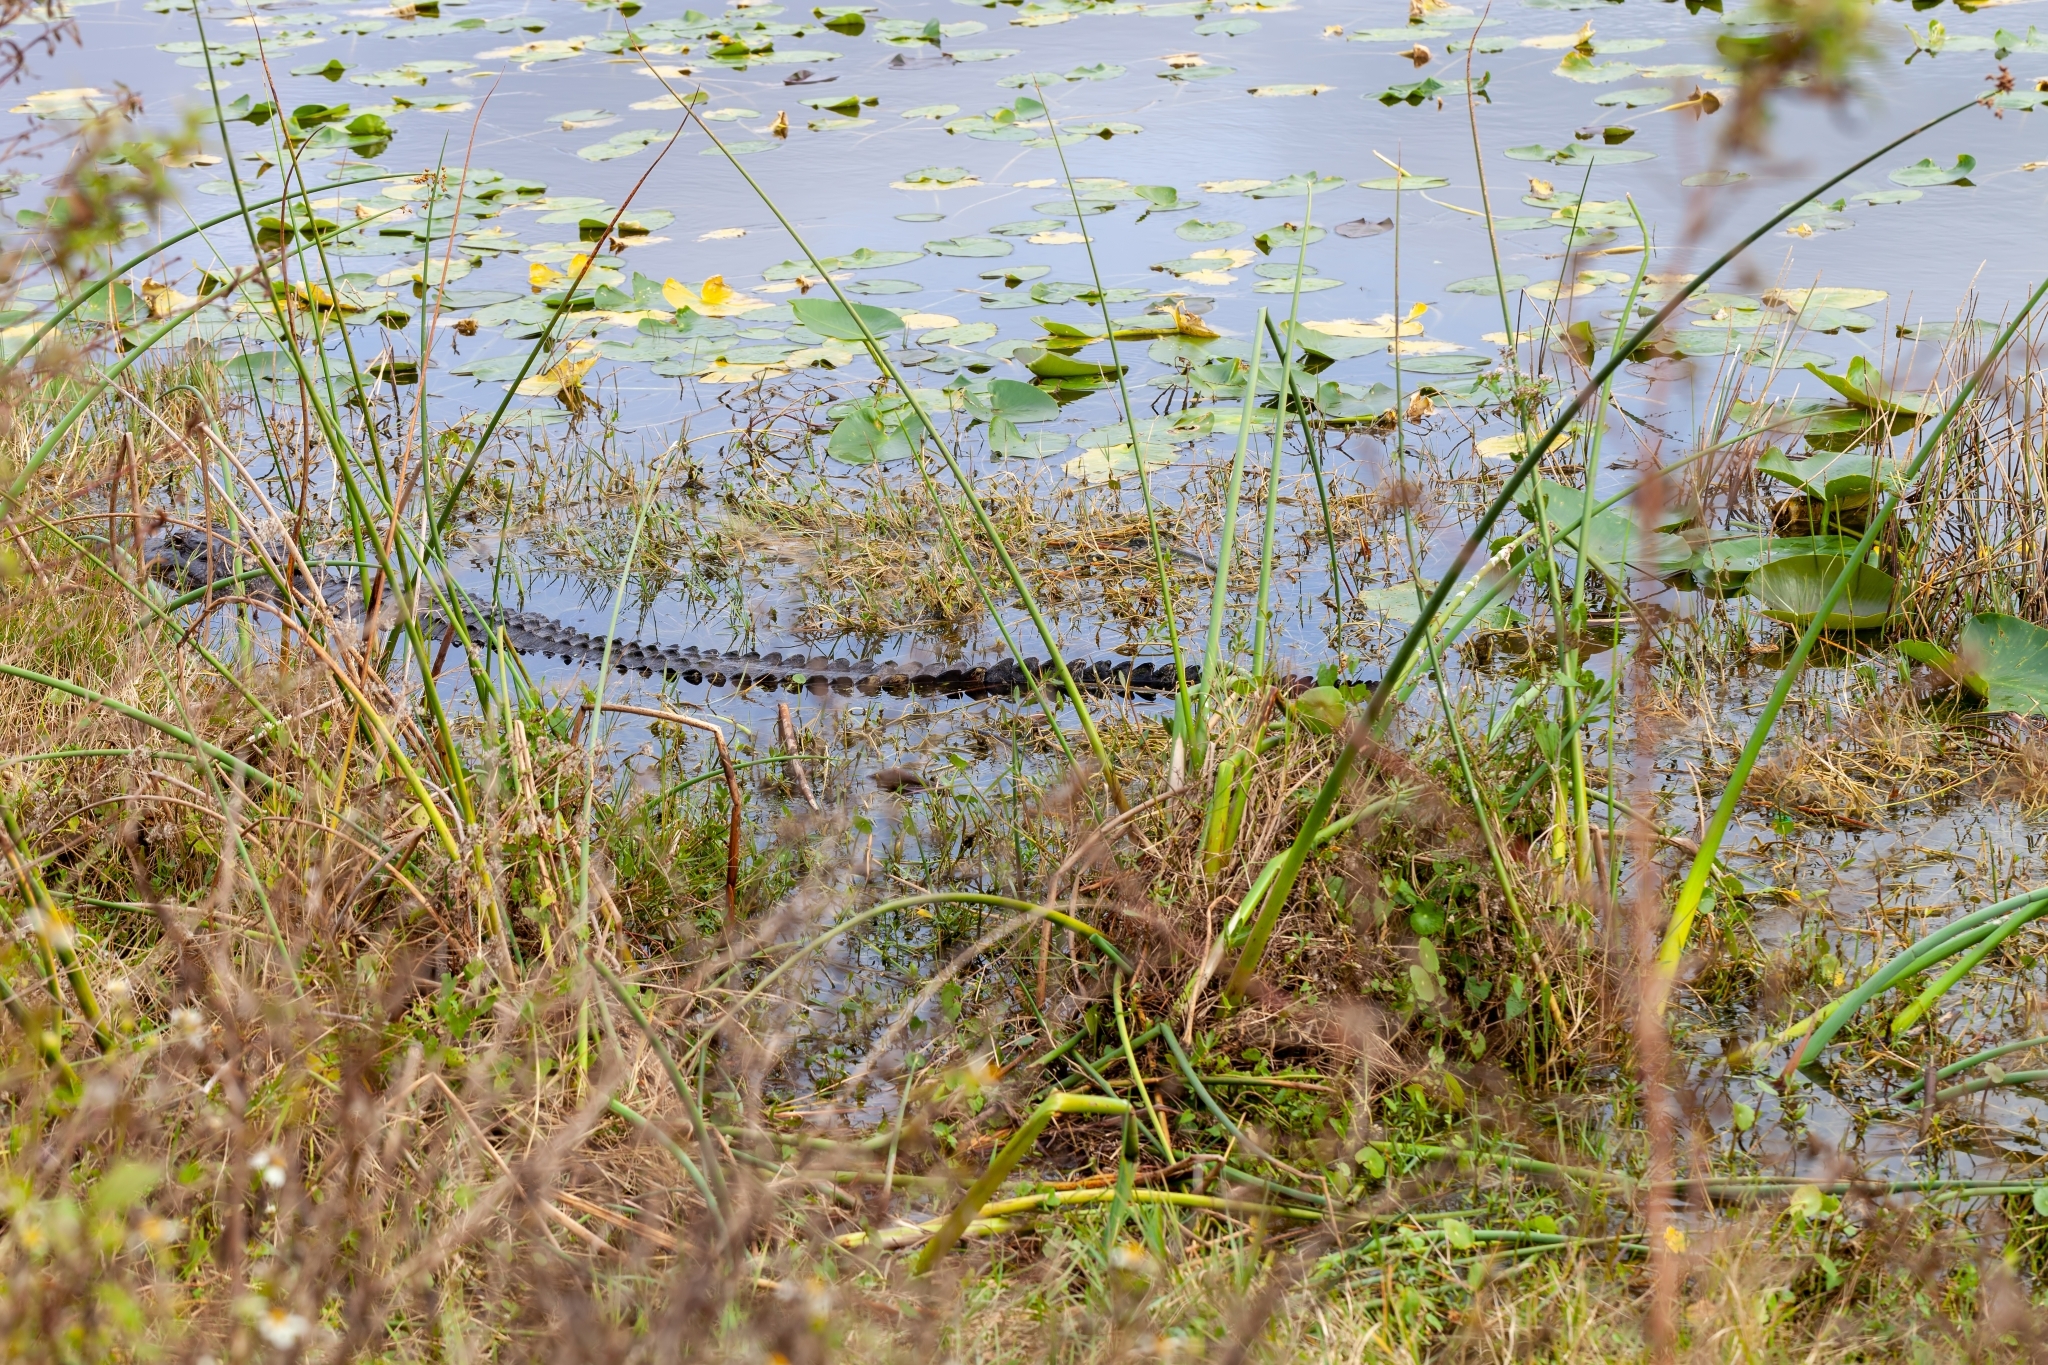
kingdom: Animalia
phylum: Chordata
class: Crocodylia
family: Alligatoridae
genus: Alligator
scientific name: Alligator mississippiensis
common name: American alligator
